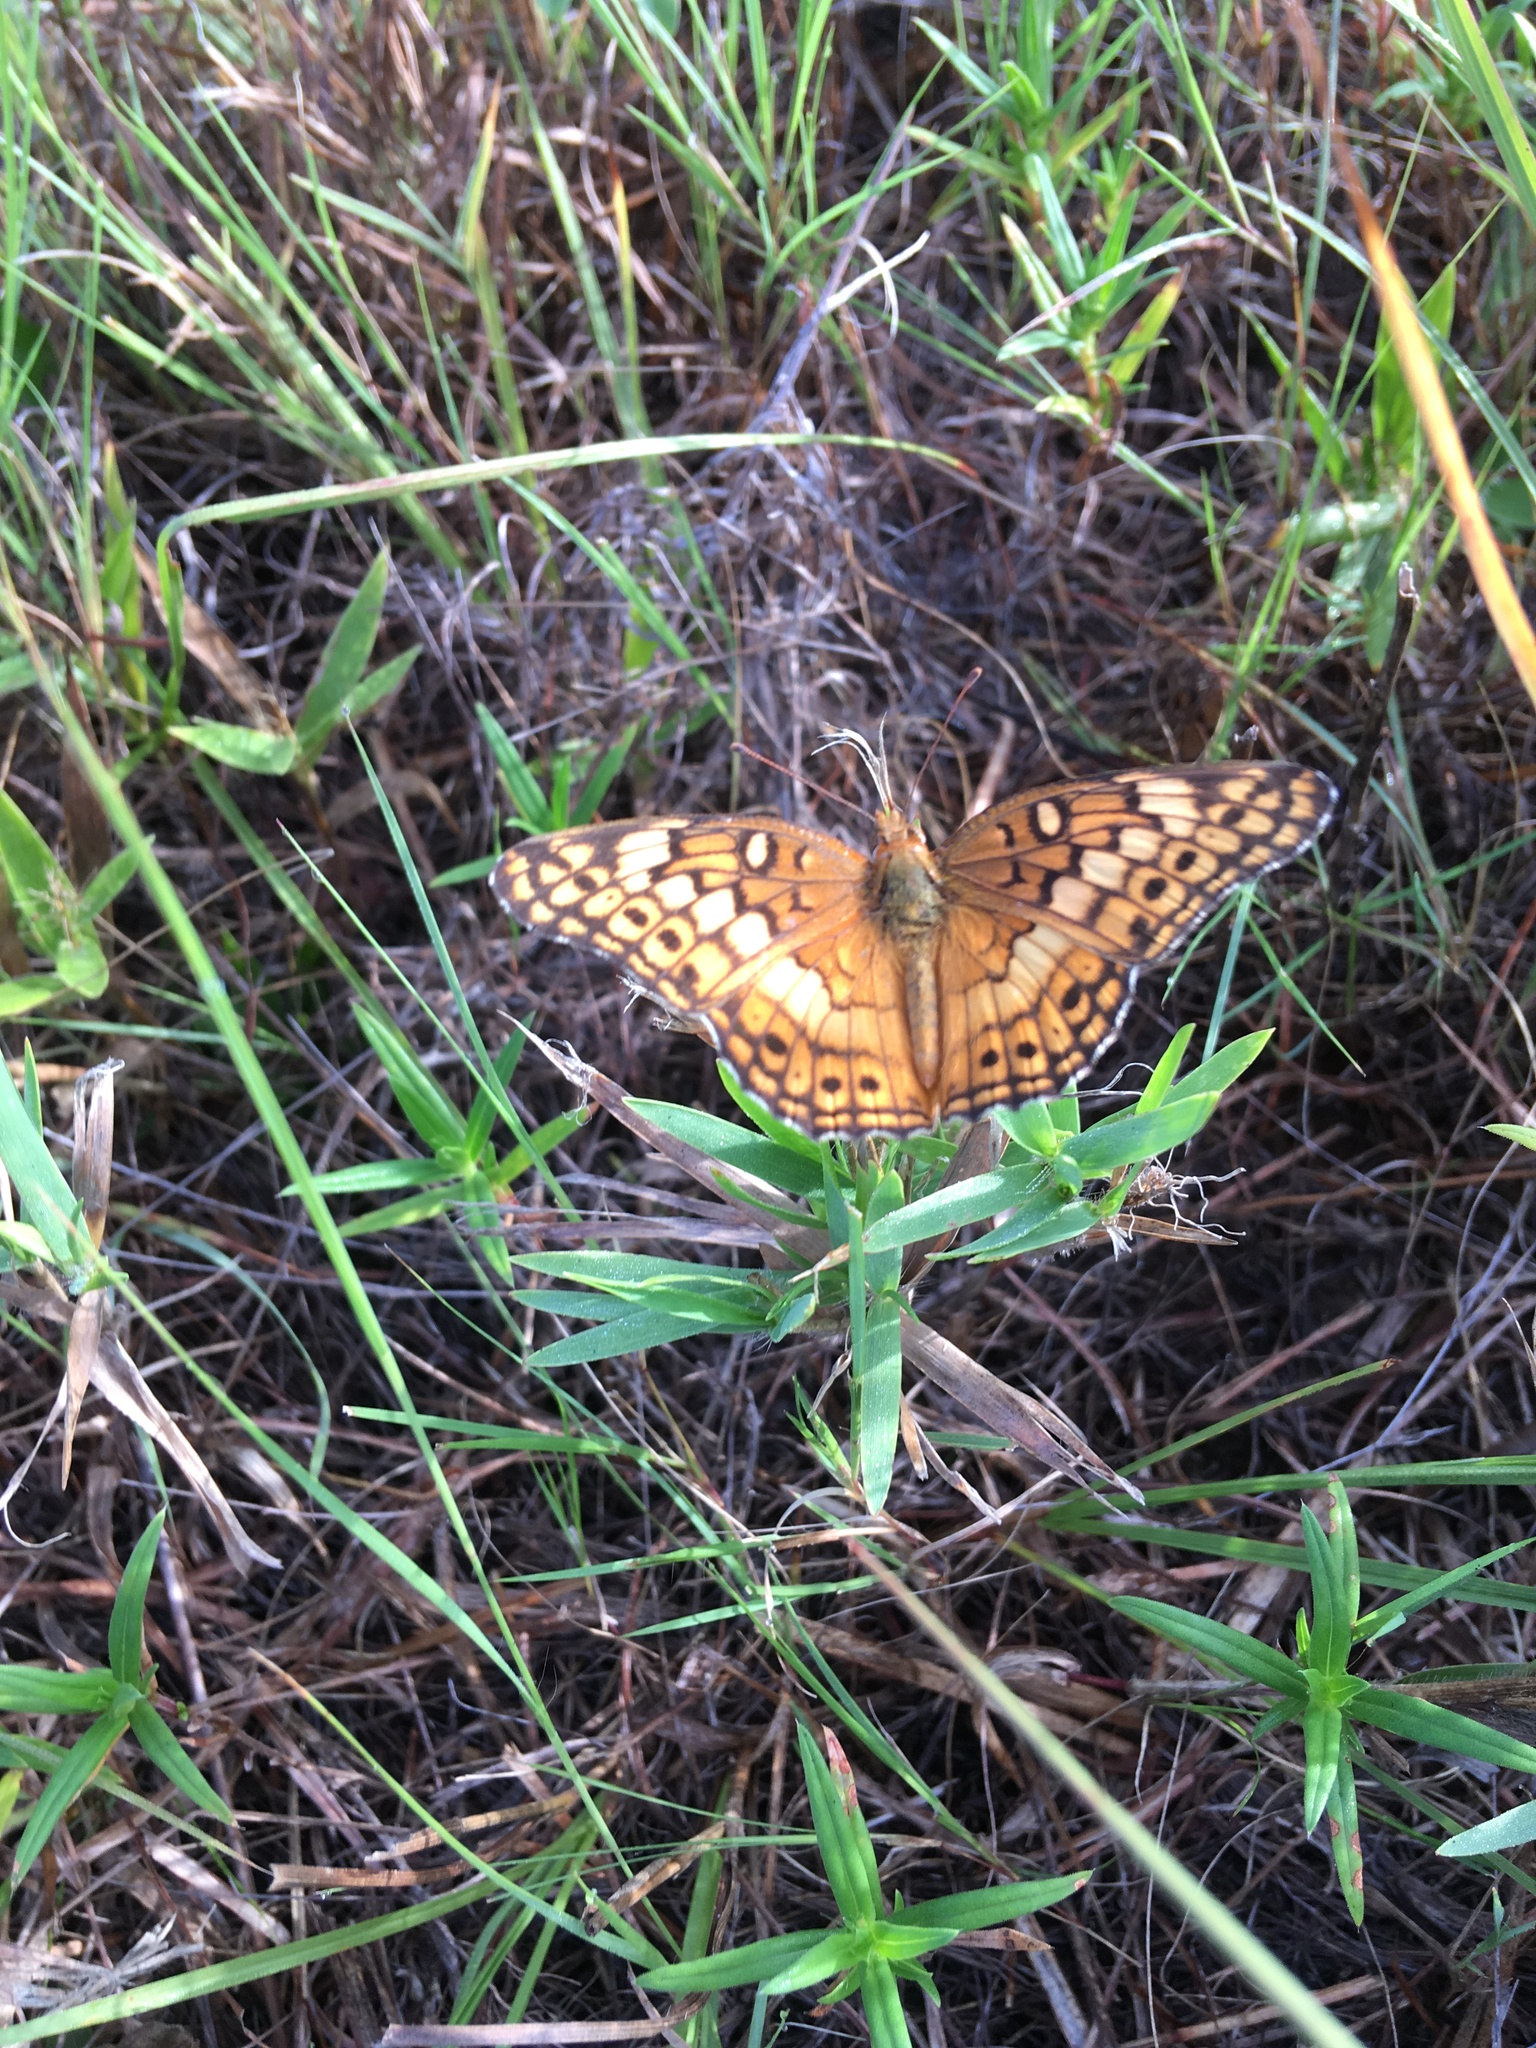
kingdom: Animalia
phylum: Arthropoda
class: Insecta
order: Lepidoptera
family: Nymphalidae
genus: Euptoieta
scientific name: Euptoieta claudia
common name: Variegated fritillary
